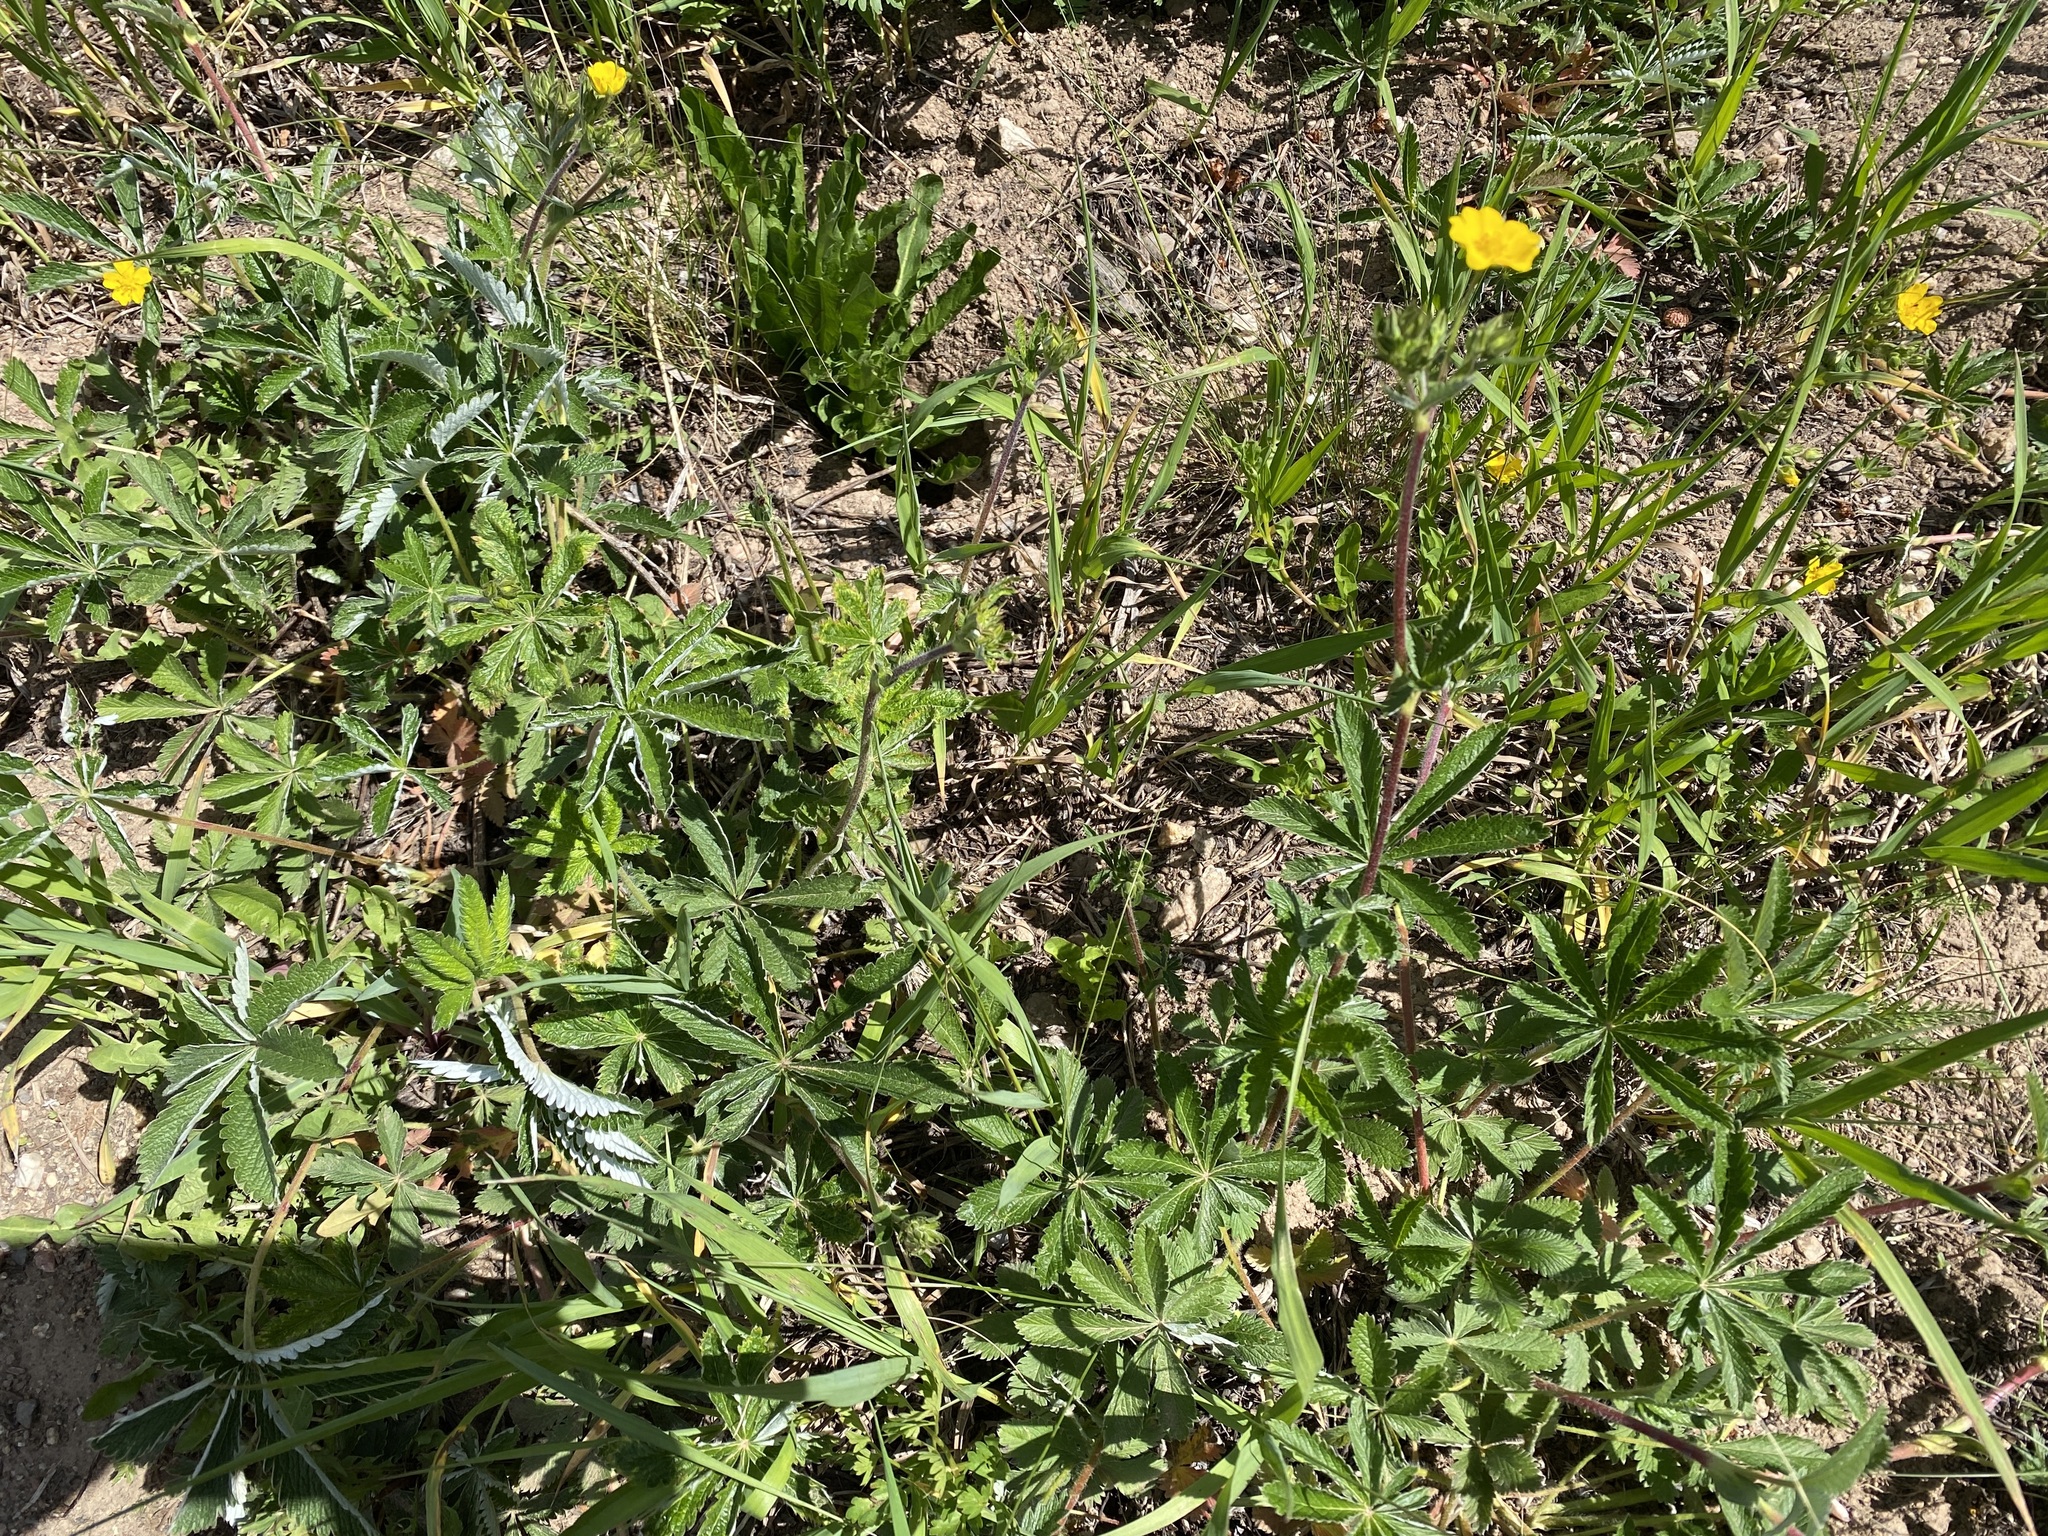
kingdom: Plantae
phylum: Tracheophyta
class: Magnoliopsida
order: Rosales
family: Rosaceae
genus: Potentilla
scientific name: Potentilla pulcherrima
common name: Beautiful cinquefoil
